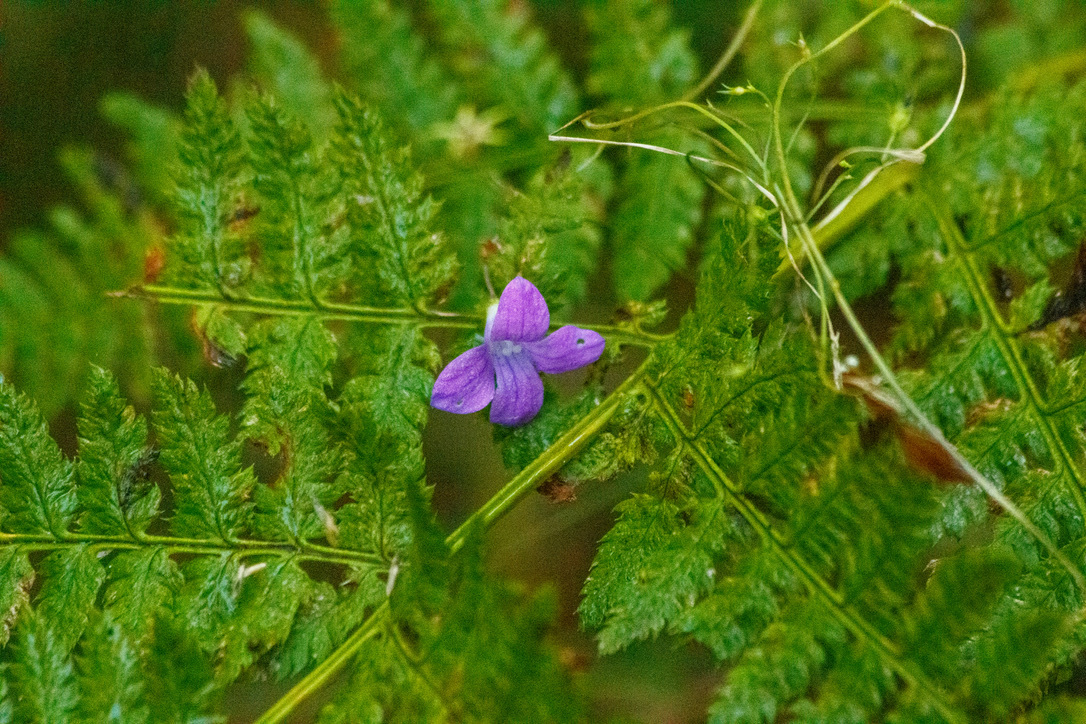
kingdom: Plantae
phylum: Tracheophyta
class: Magnoliopsida
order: Asterales
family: Campanulaceae
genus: Campanula
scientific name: Campanula patula
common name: Spreading bellflower
